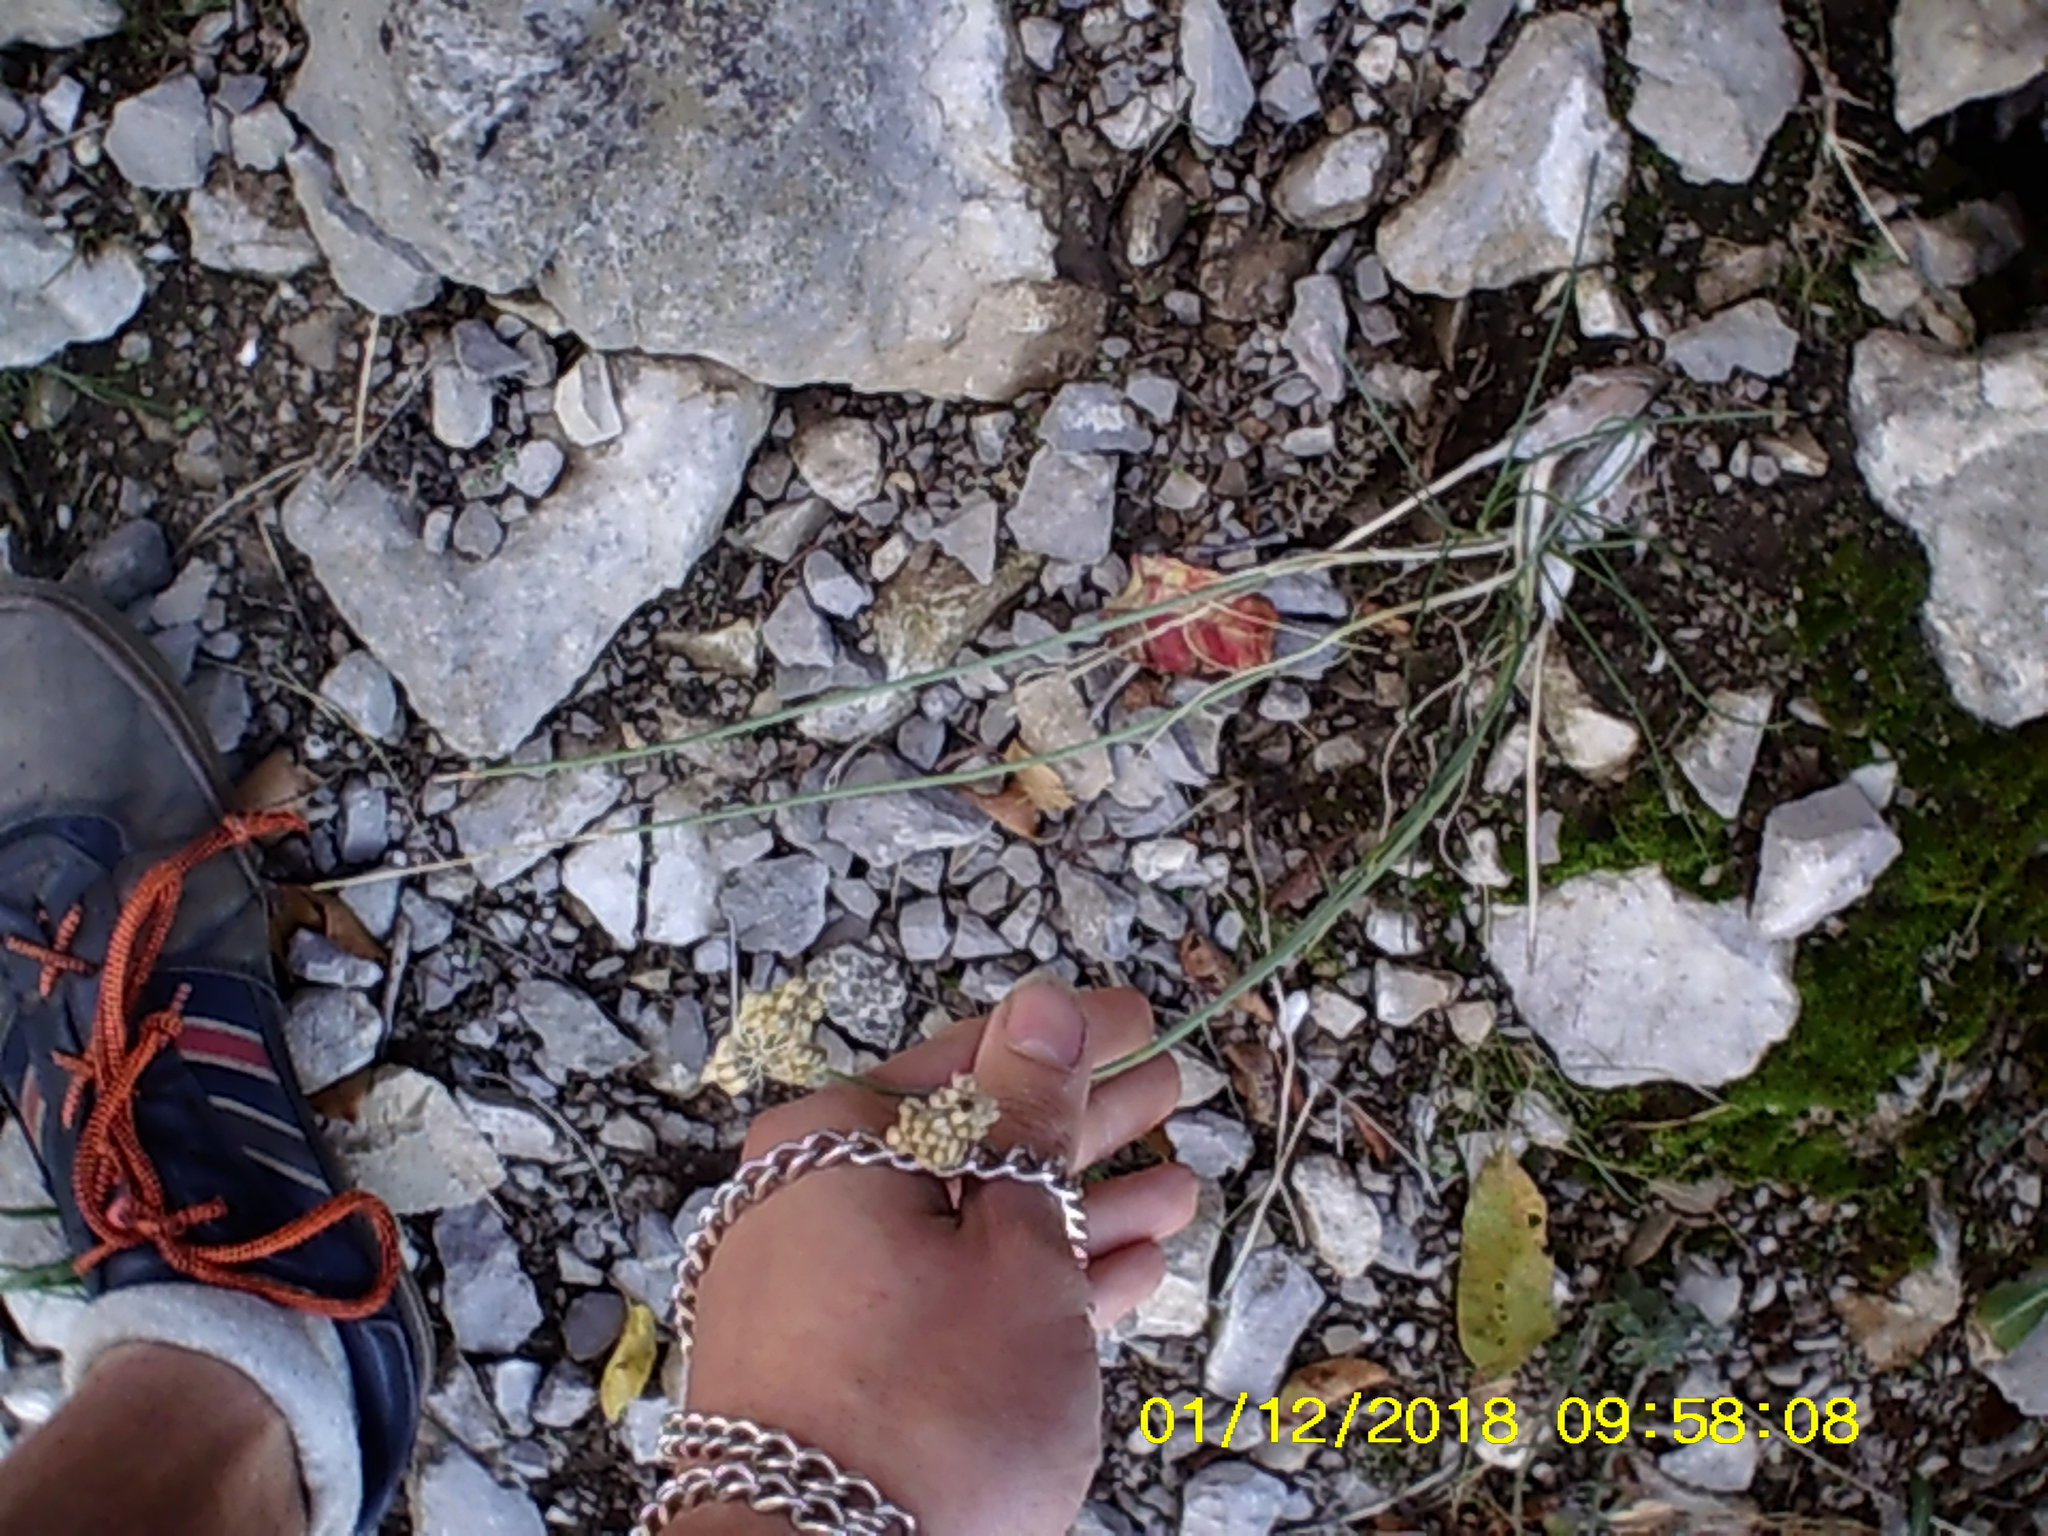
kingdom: Plantae
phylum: Tracheophyta
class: Liliopsida
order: Asparagales
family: Amaryllidaceae
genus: Allium
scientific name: Allium marschallianum
